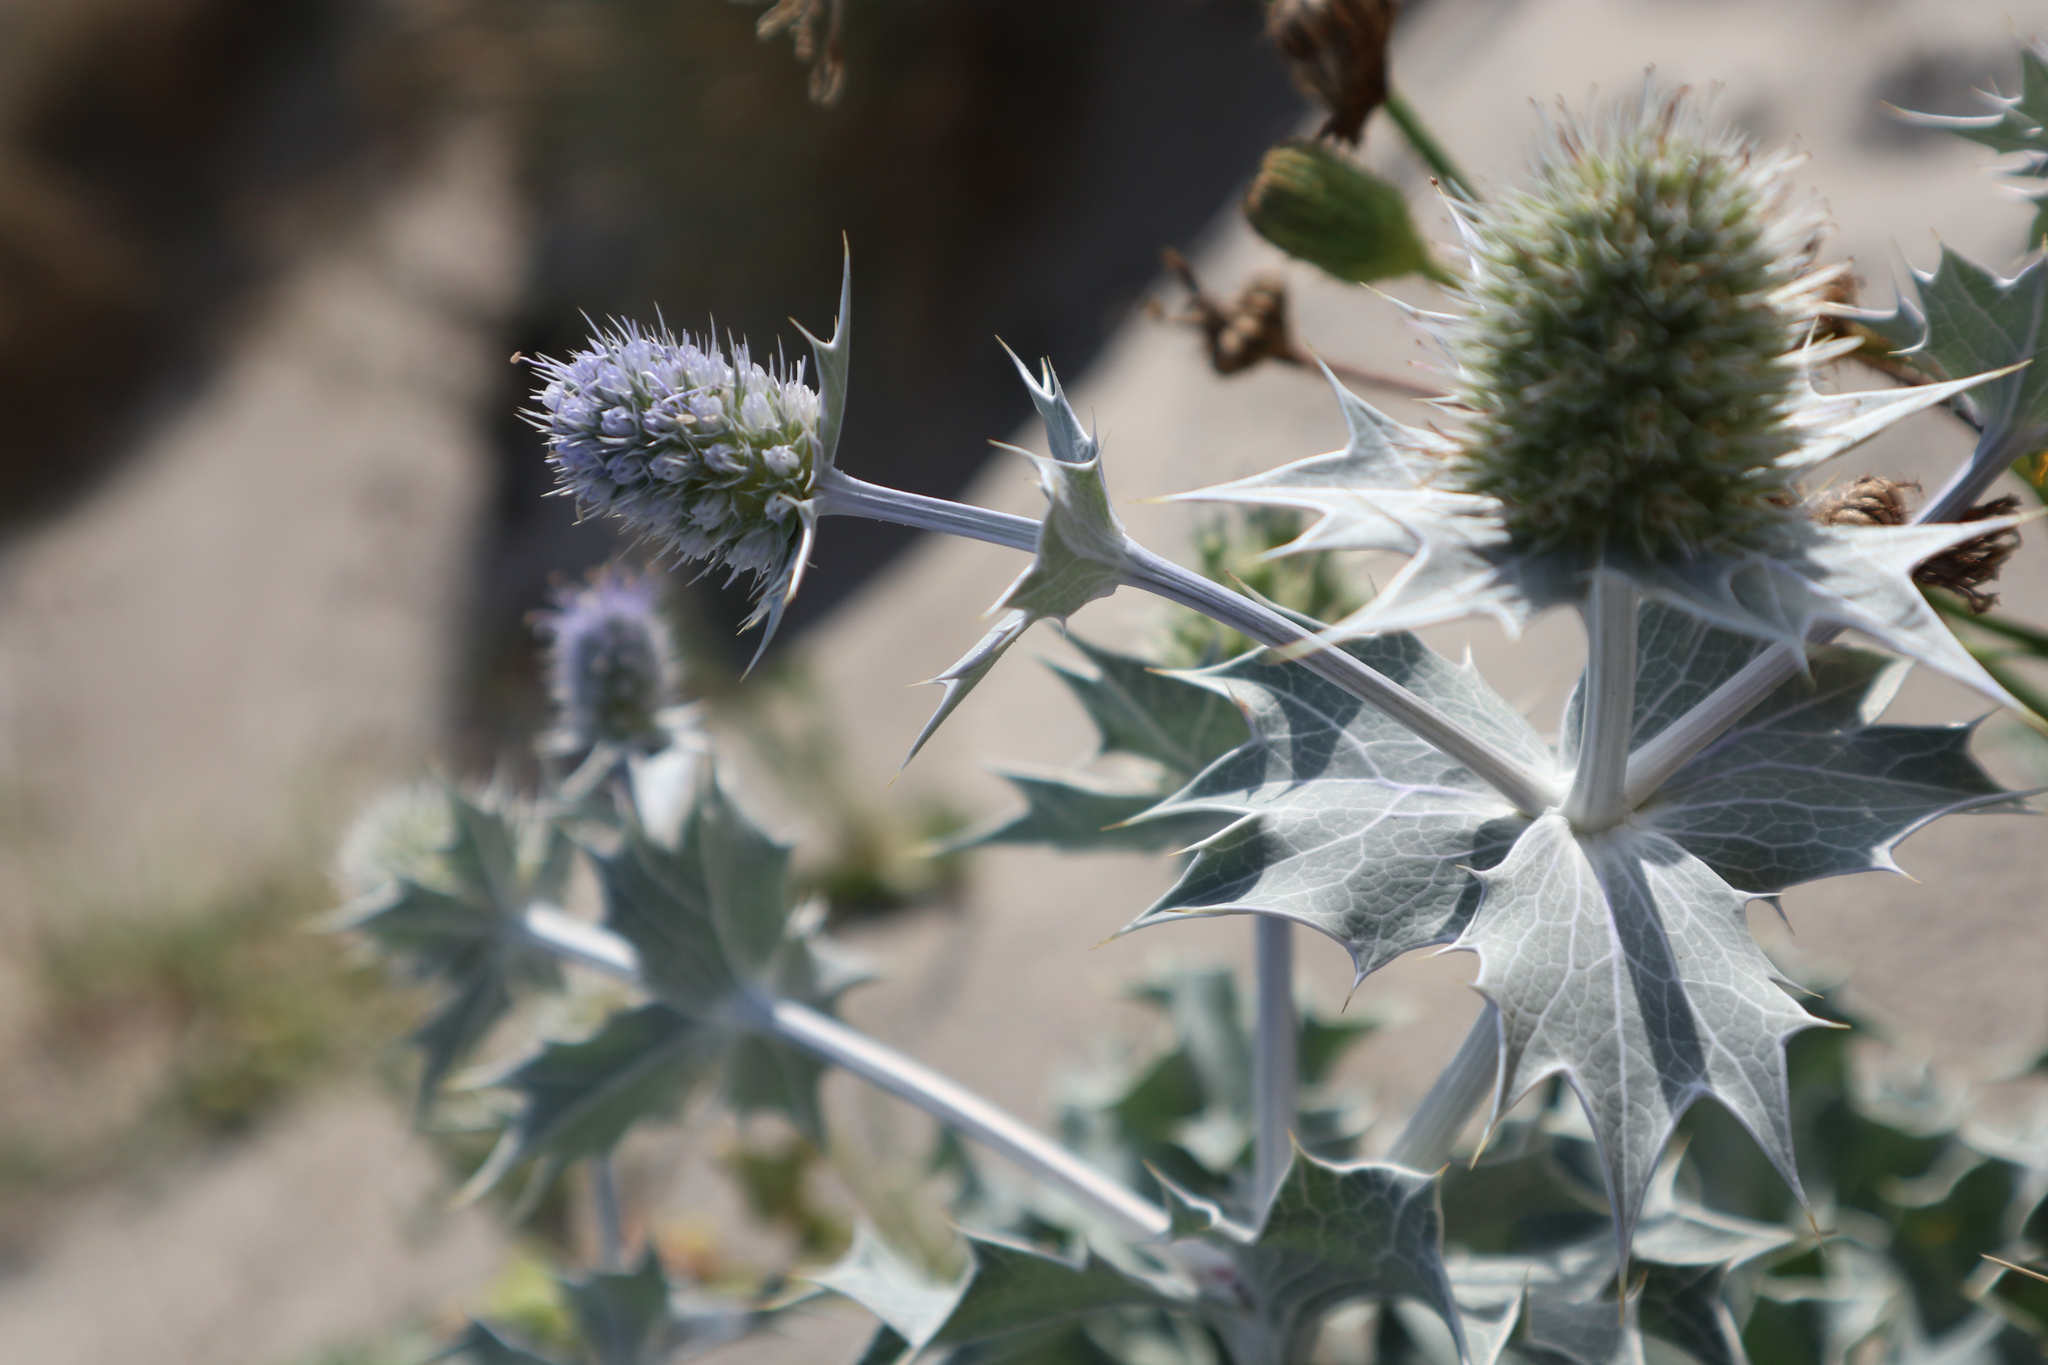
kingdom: Plantae
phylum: Tracheophyta
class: Magnoliopsida
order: Apiales
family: Apiaceae
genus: Eryngium
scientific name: Eryngium maritimum
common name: Sea-holly
